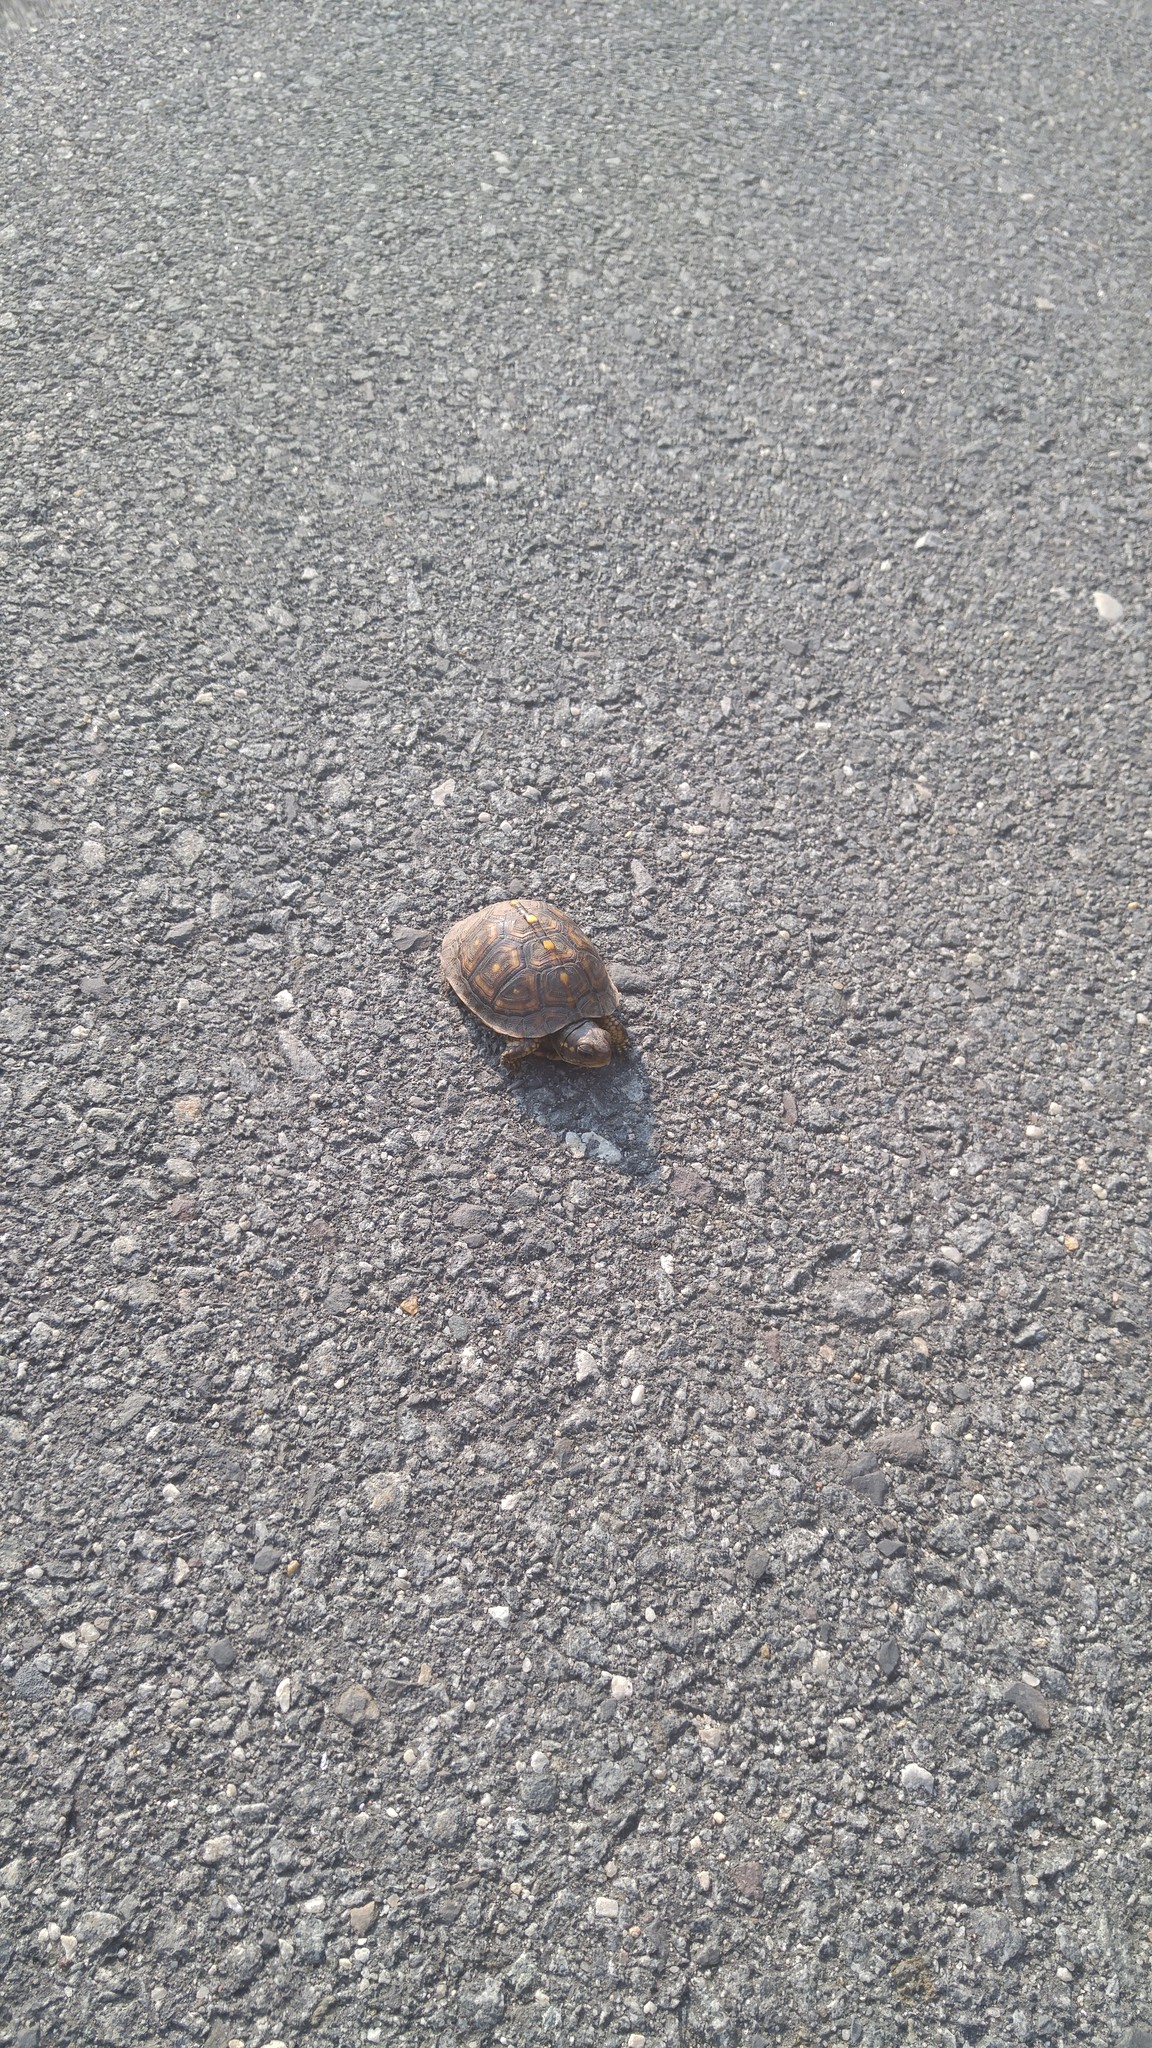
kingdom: Animalia
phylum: Chordata
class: Testudines
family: Emydidae
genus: Terrapene
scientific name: Terrapene carolina
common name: Common box turtle
